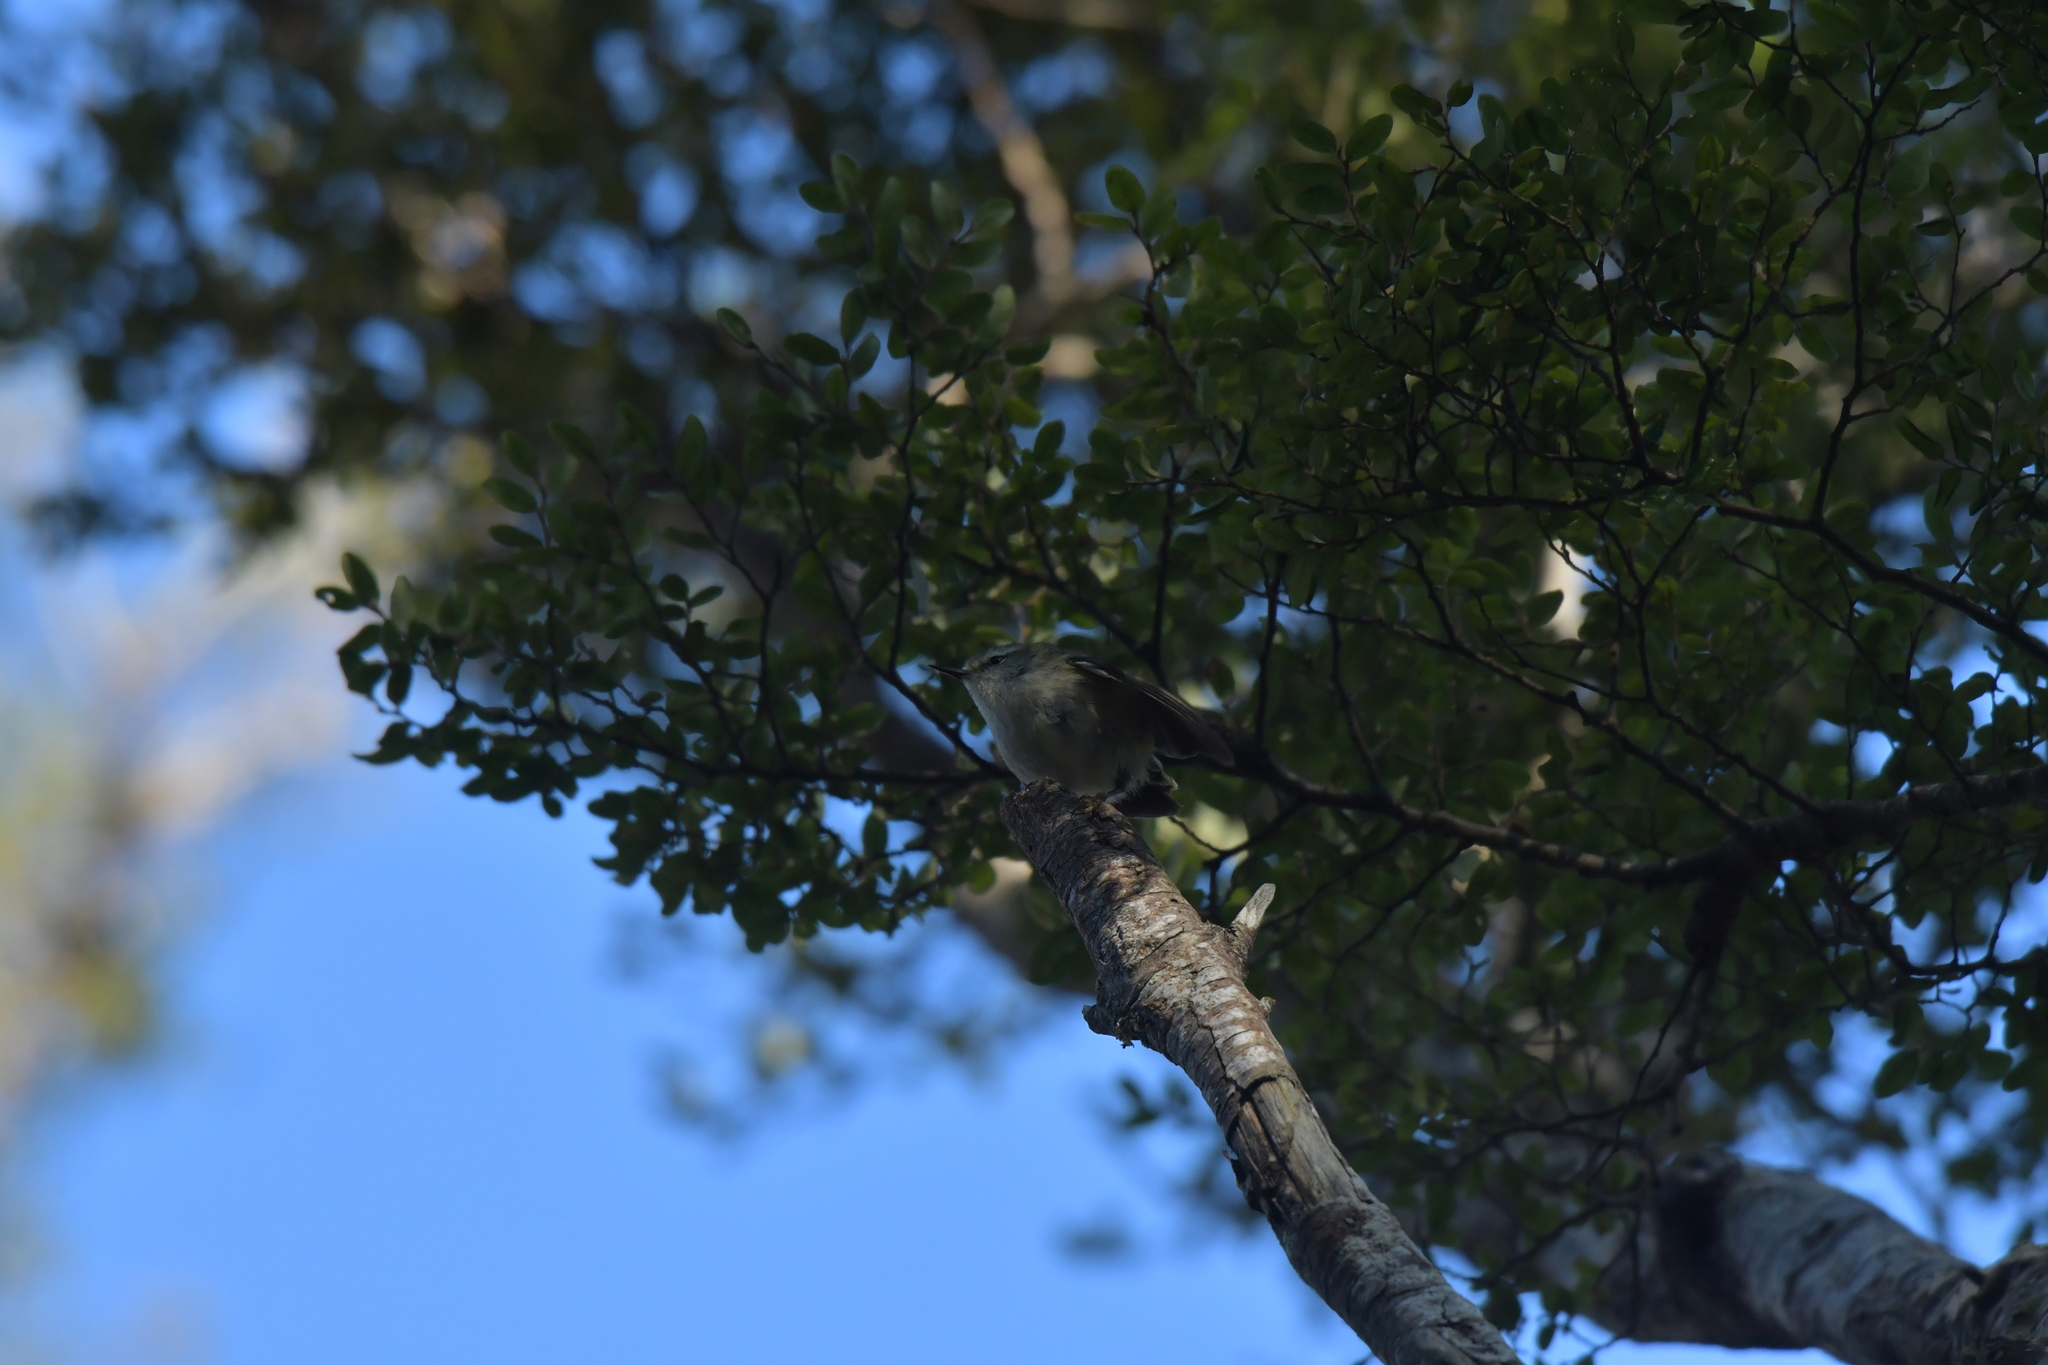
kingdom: Animalia
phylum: Chordata
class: Aves
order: Passeriformes
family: Acanthisittidae
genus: Acanthisitta
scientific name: Acanthisitta chloris
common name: Rifleman
